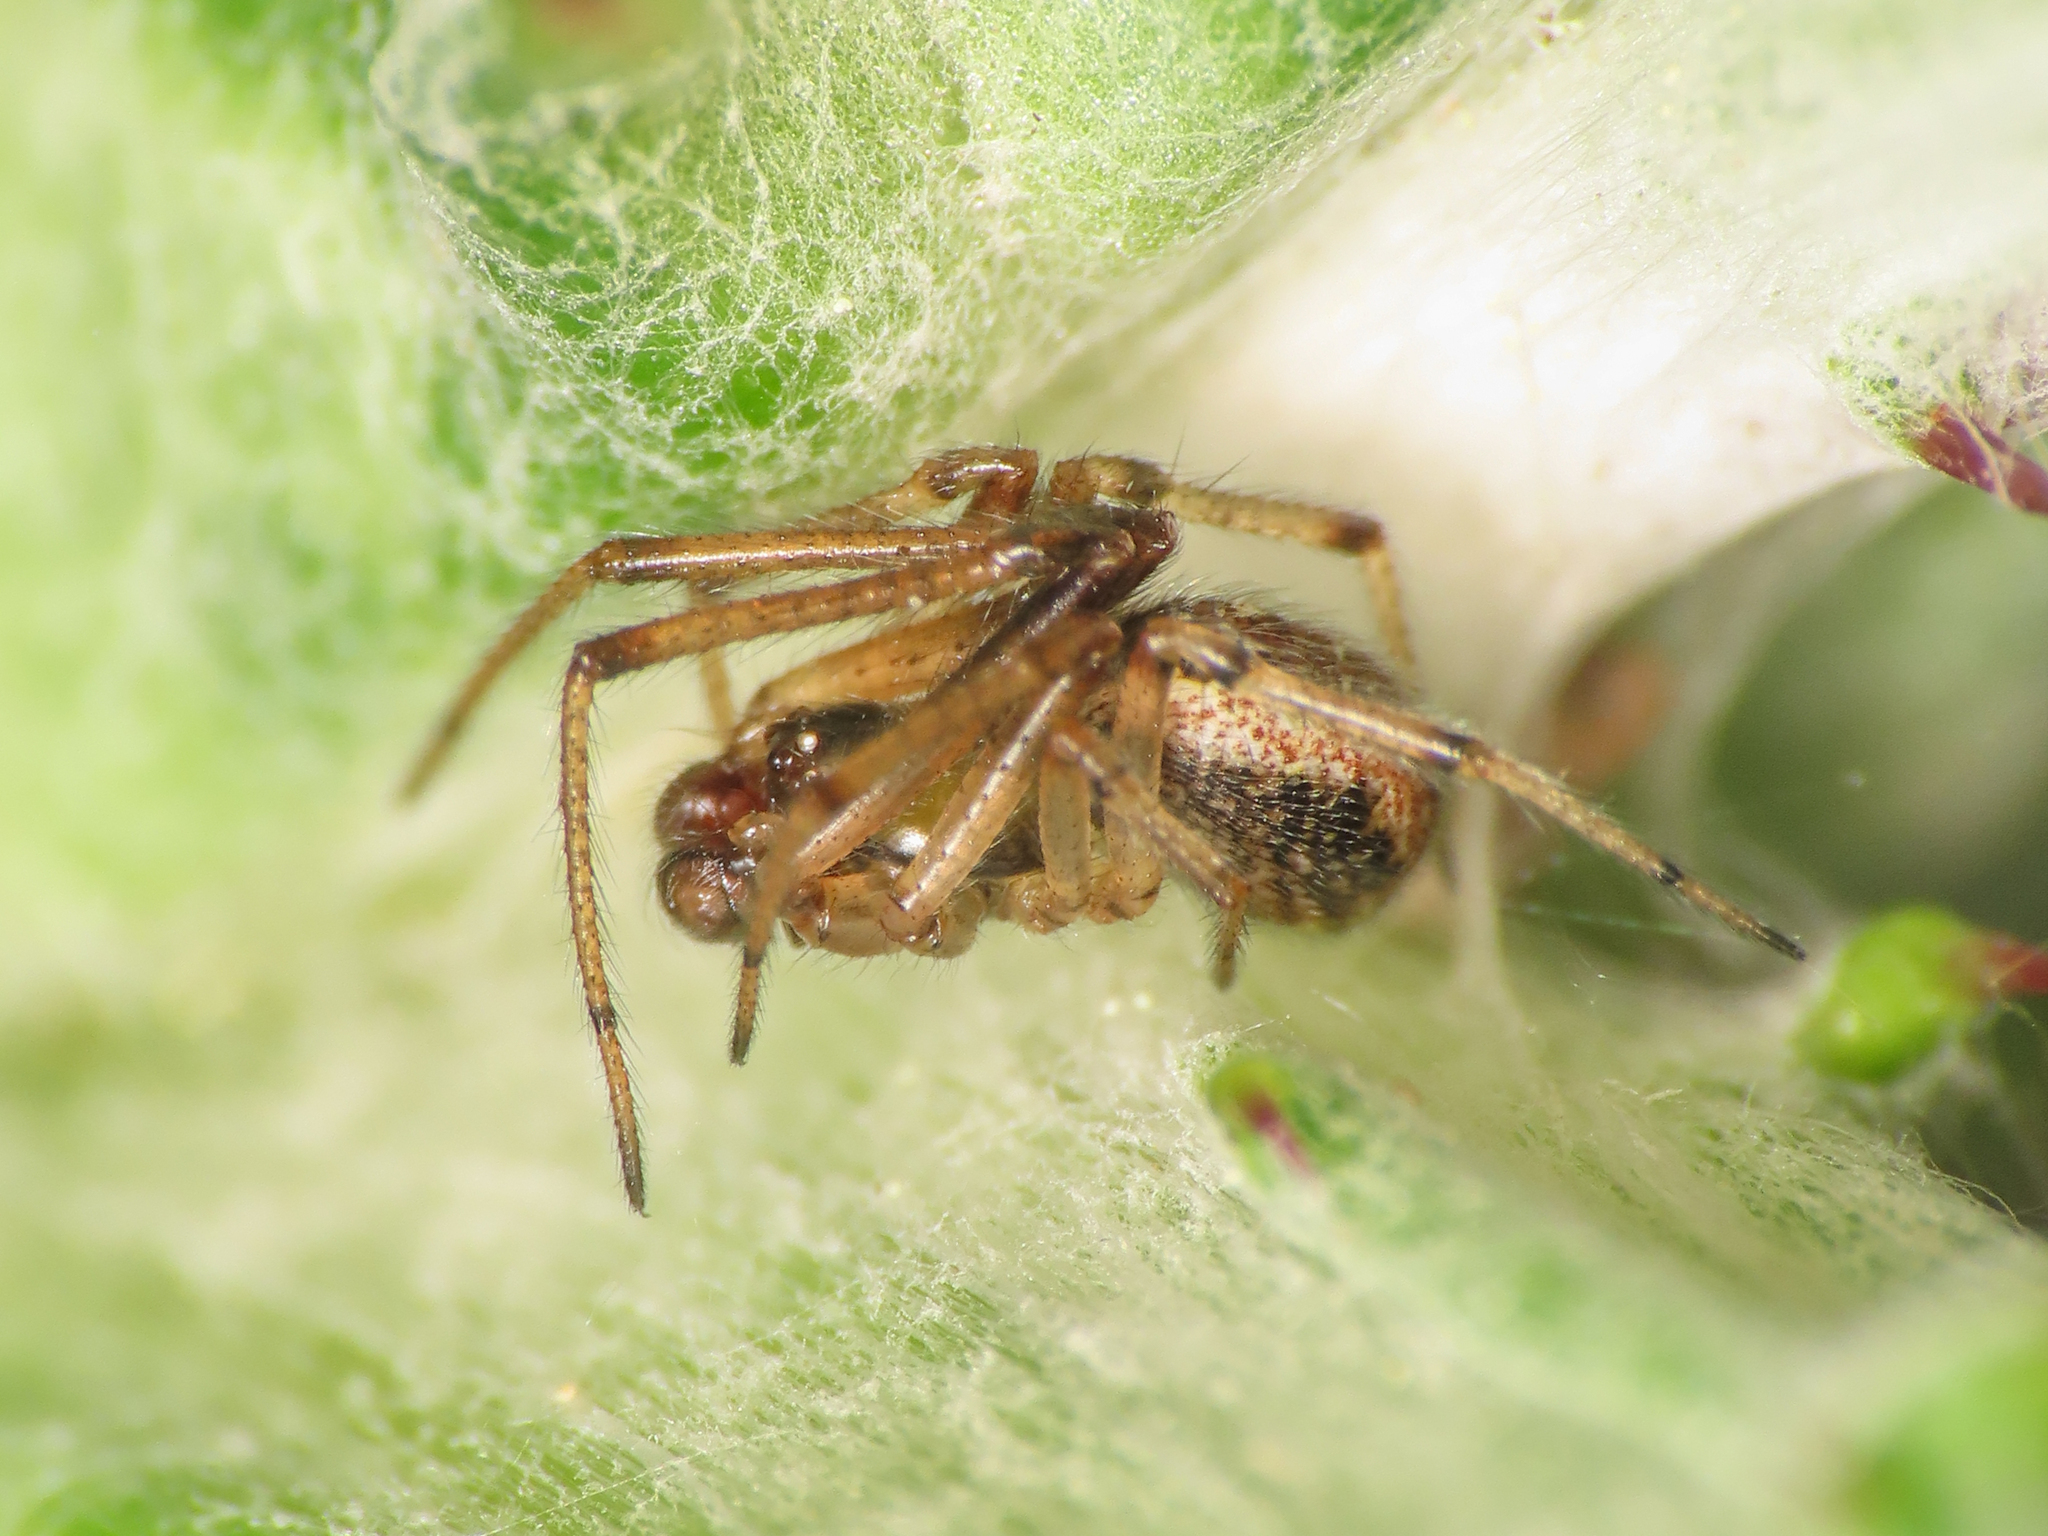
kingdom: Animalia
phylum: Arthropoda
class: Arachnida
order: Araneae
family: Theridiidae
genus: Kochiura
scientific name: Kochiura aulica
